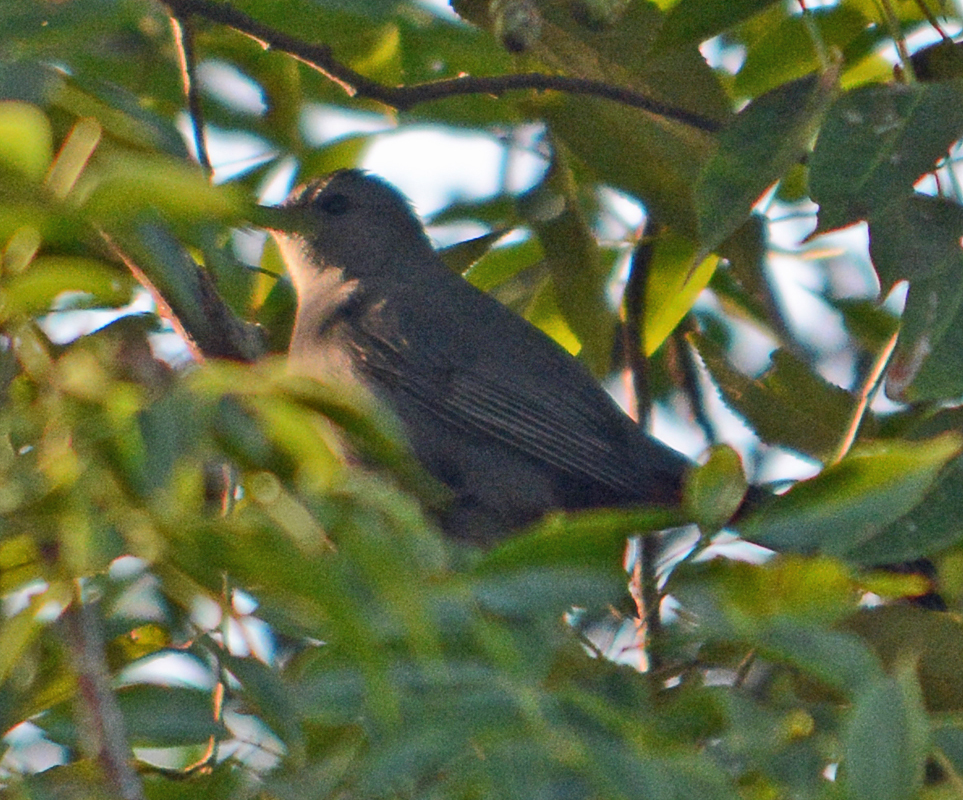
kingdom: Animalia
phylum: Chordata
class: Aves
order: Passeriformes
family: Mimidae
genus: Dumetella
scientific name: Dumetella carolinensis
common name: Gray catbird
